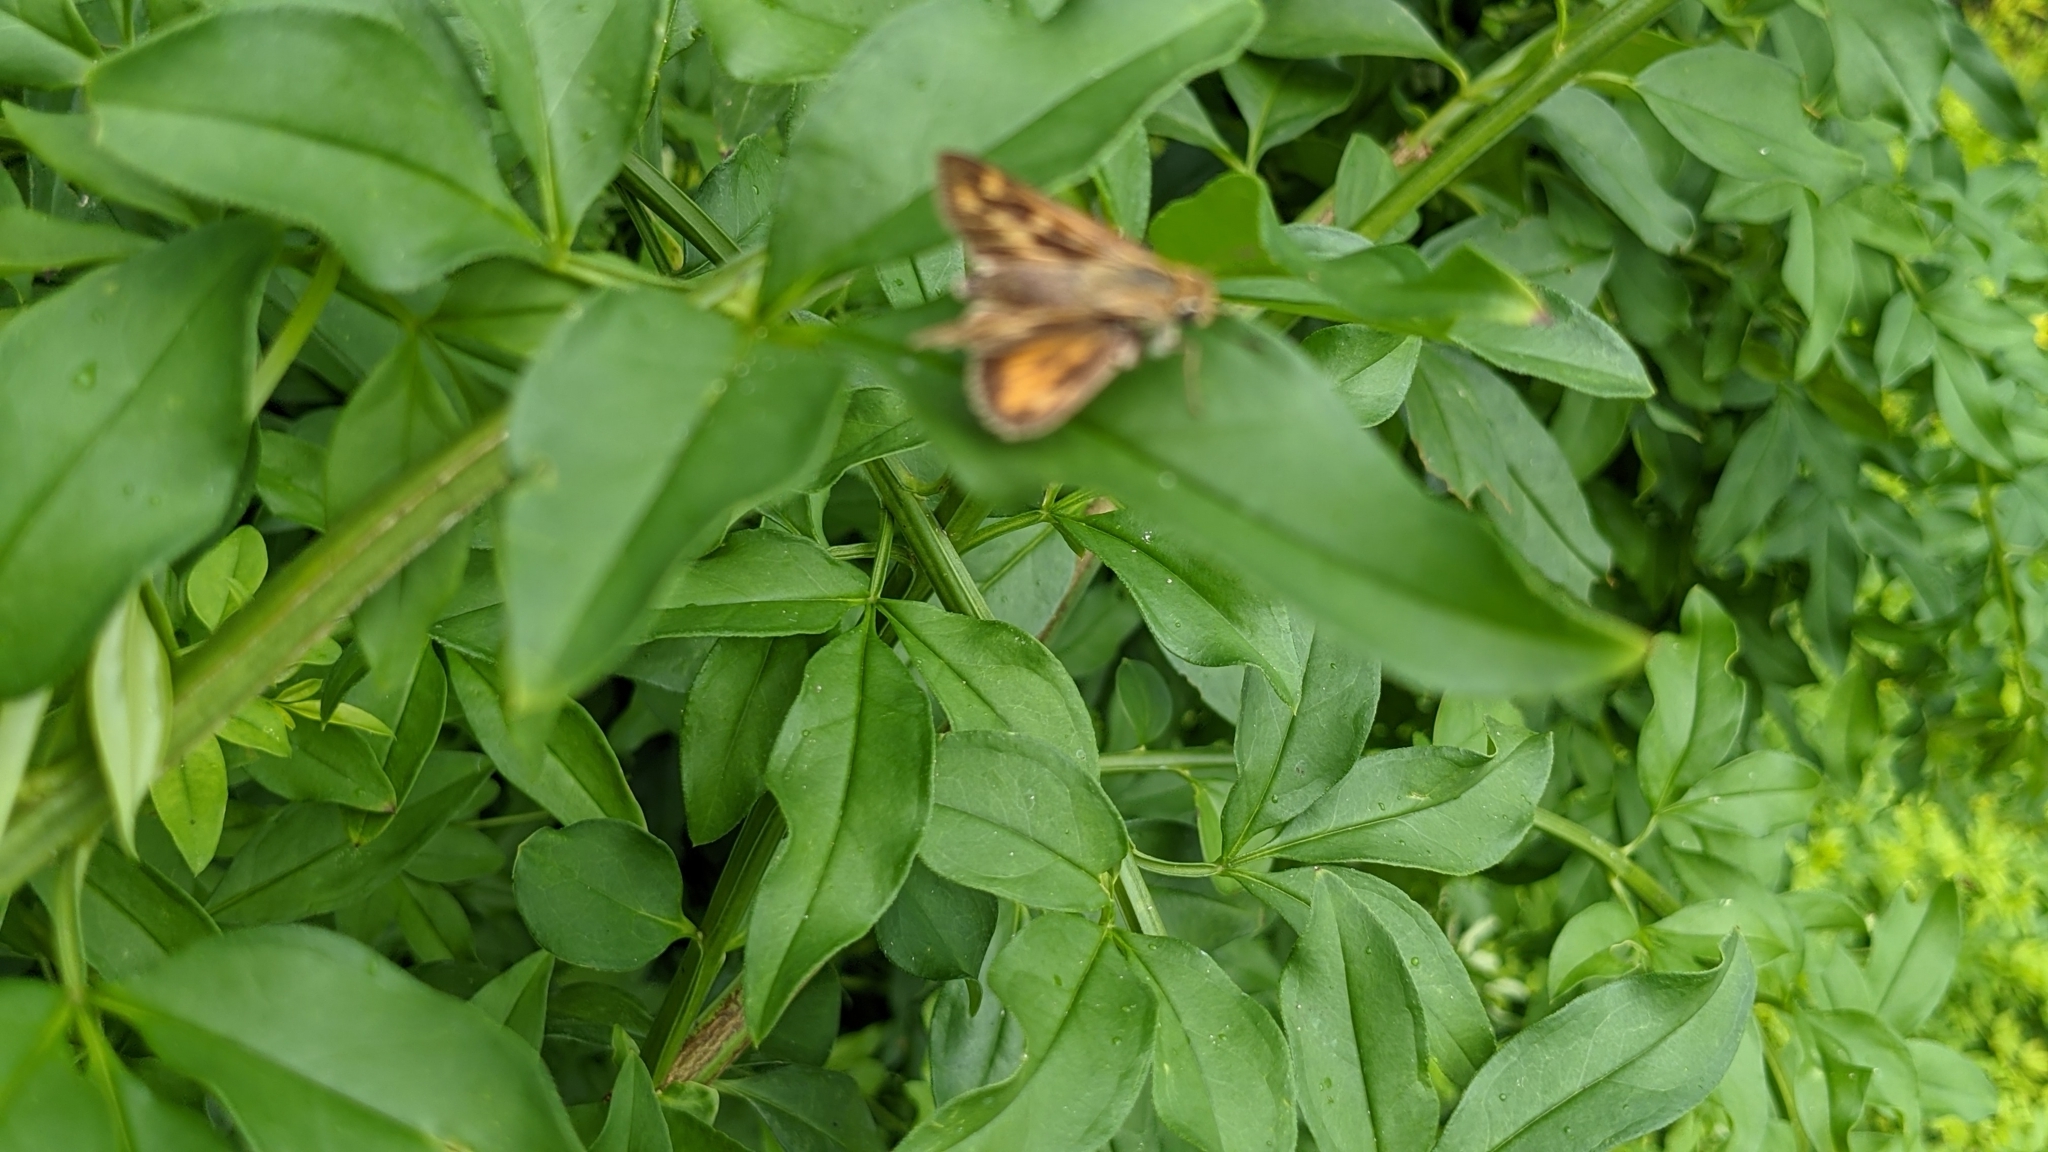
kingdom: Animalia
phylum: Arthropoda
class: Insecta
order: Lepidoptera
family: Hesperiidae
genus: Hylephila
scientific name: Hylephila phyleus
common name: Fiery skipper
